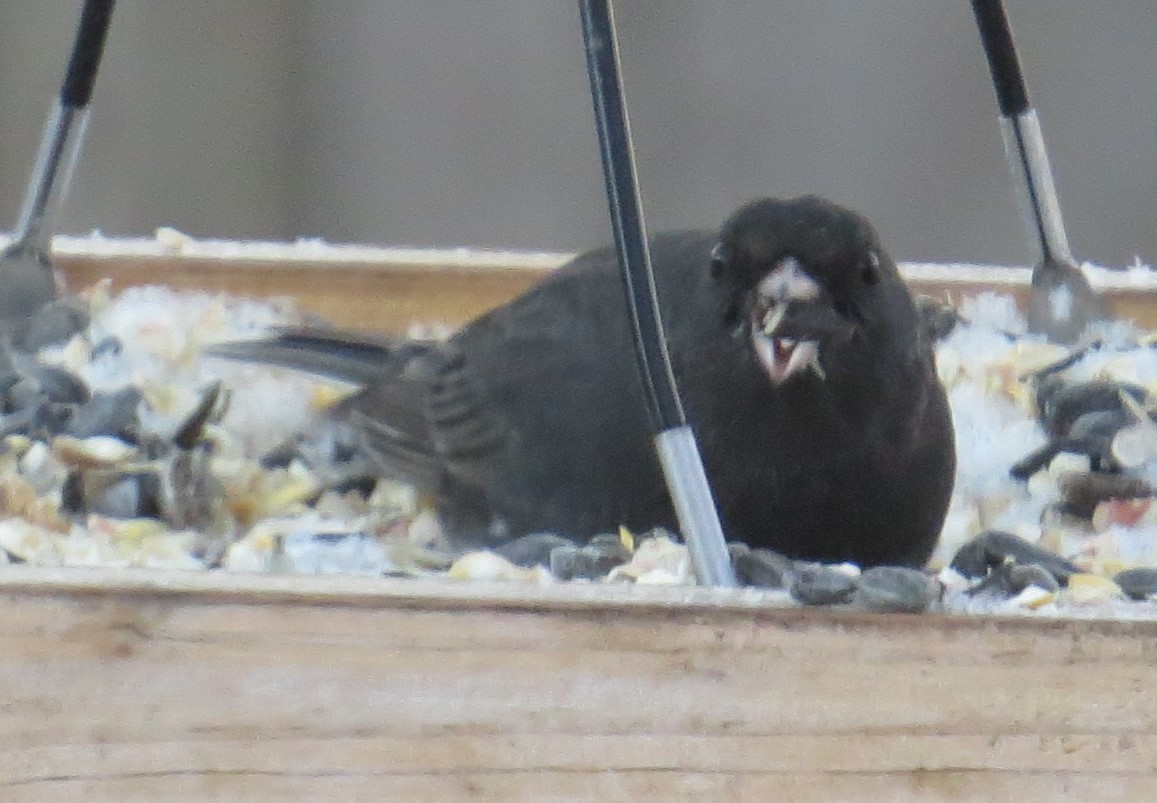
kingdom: Animalia
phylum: Chordata
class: Aves
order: Passeriformes
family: Passerellidae
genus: Junco
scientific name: Junco hyemalis
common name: Dark-eyed junco
